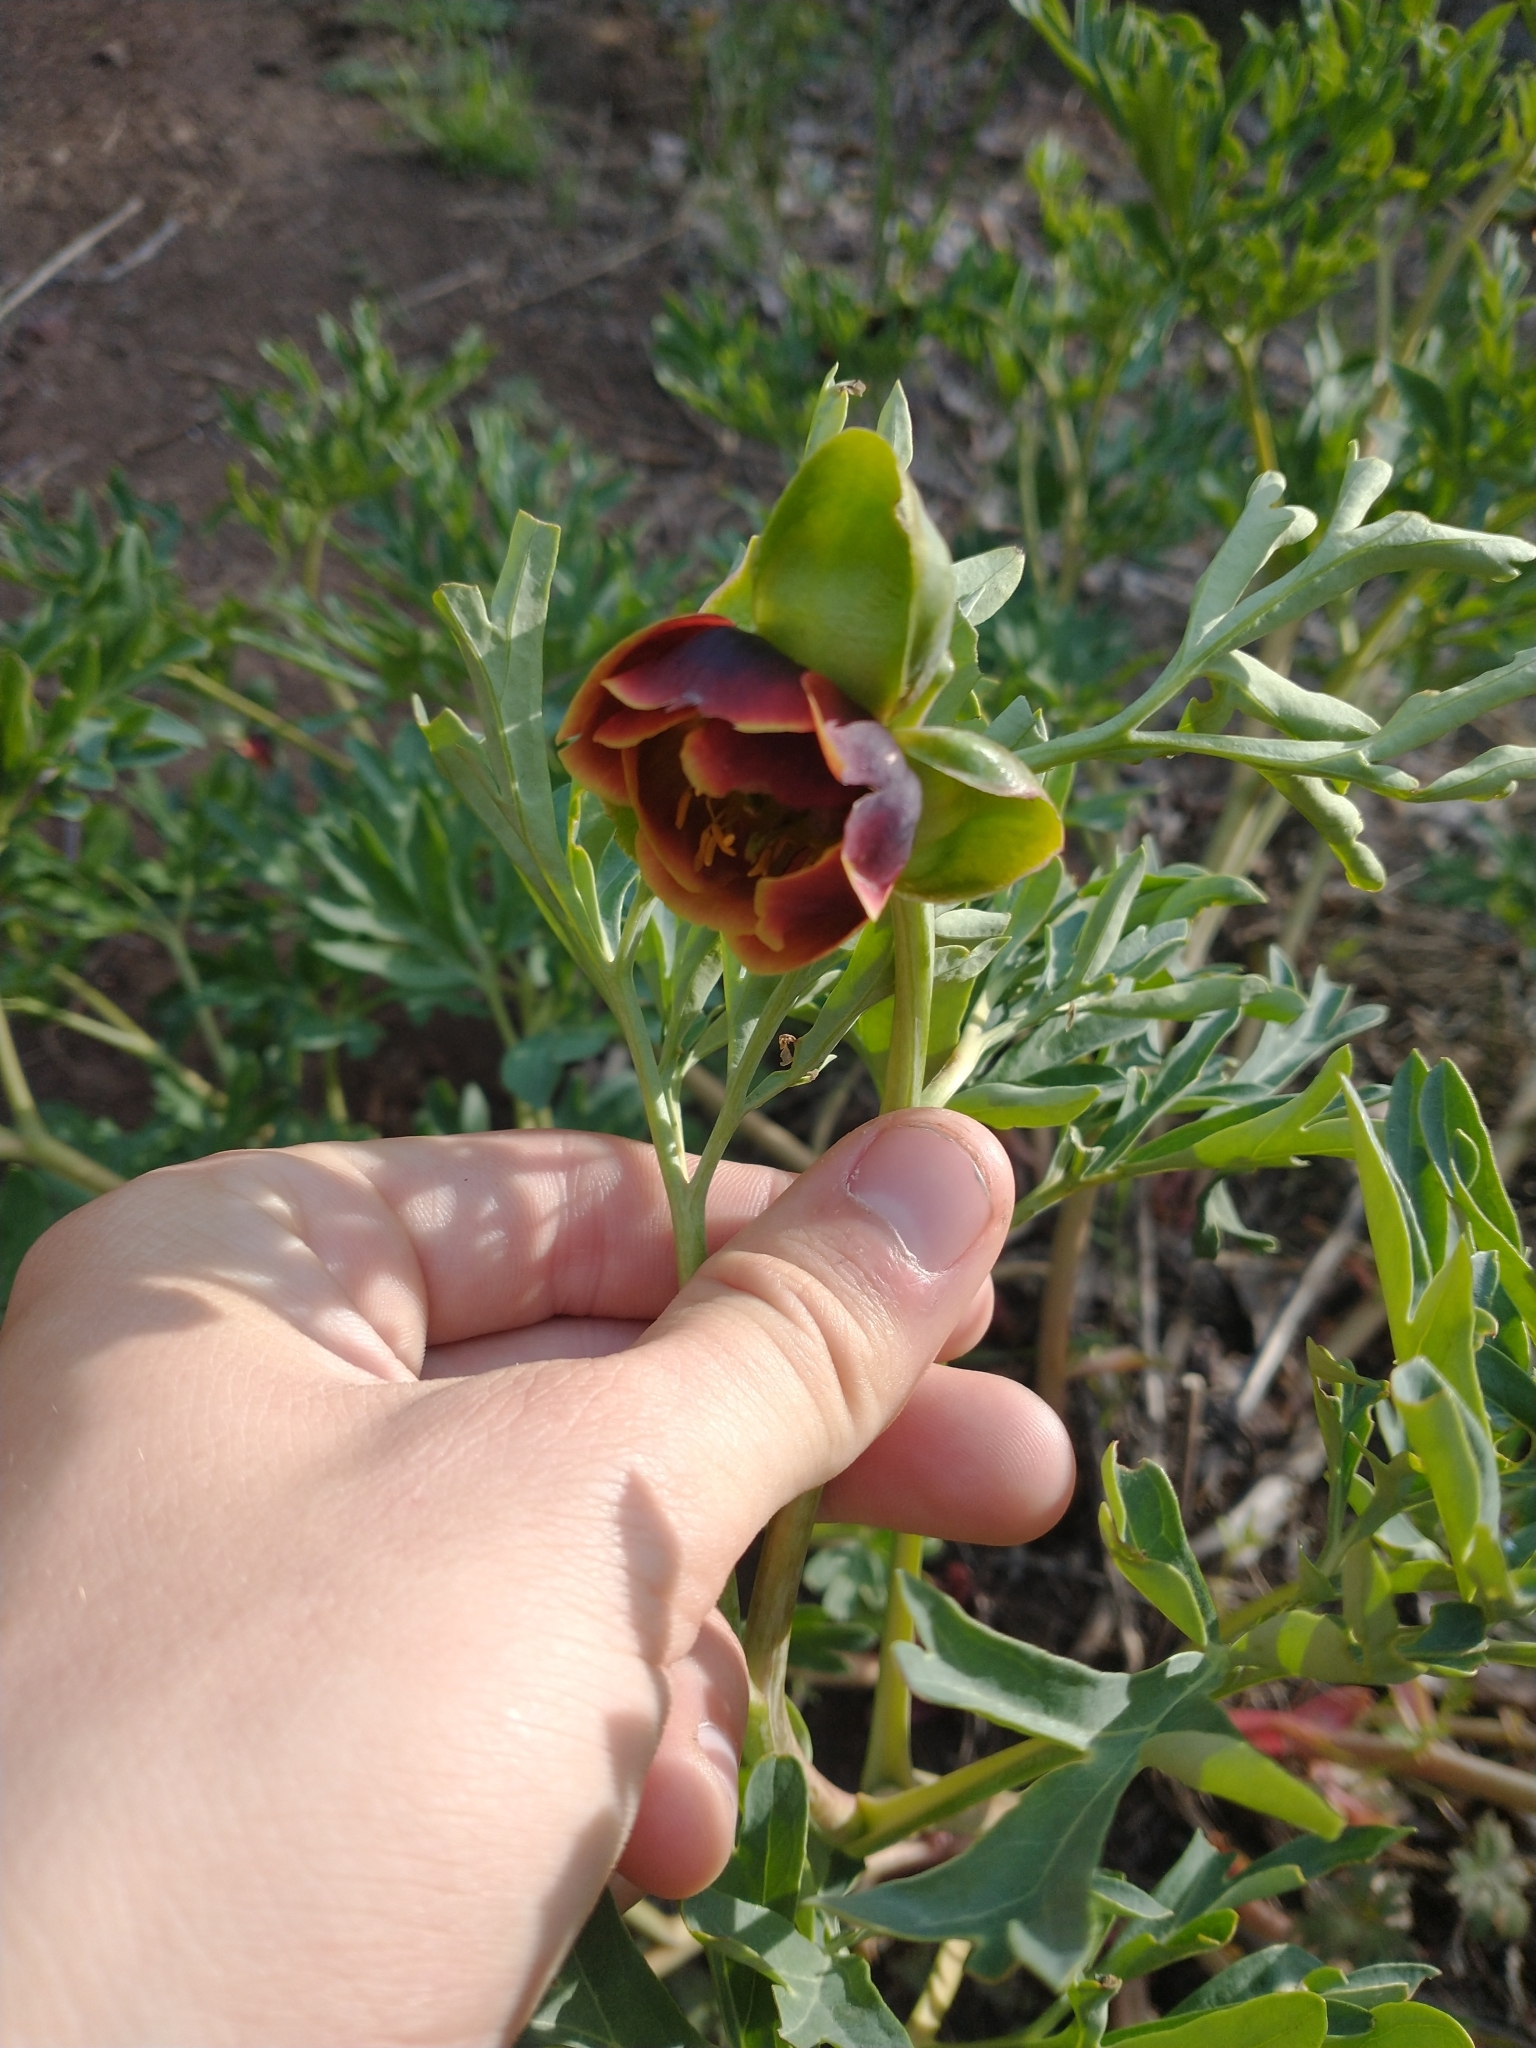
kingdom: Plantae
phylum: Tracheophyta
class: Magnoliopsida
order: Saxifragales
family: Paeoniaceae
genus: Paeonia
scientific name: Paeonia brownii
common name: Brown's peony
